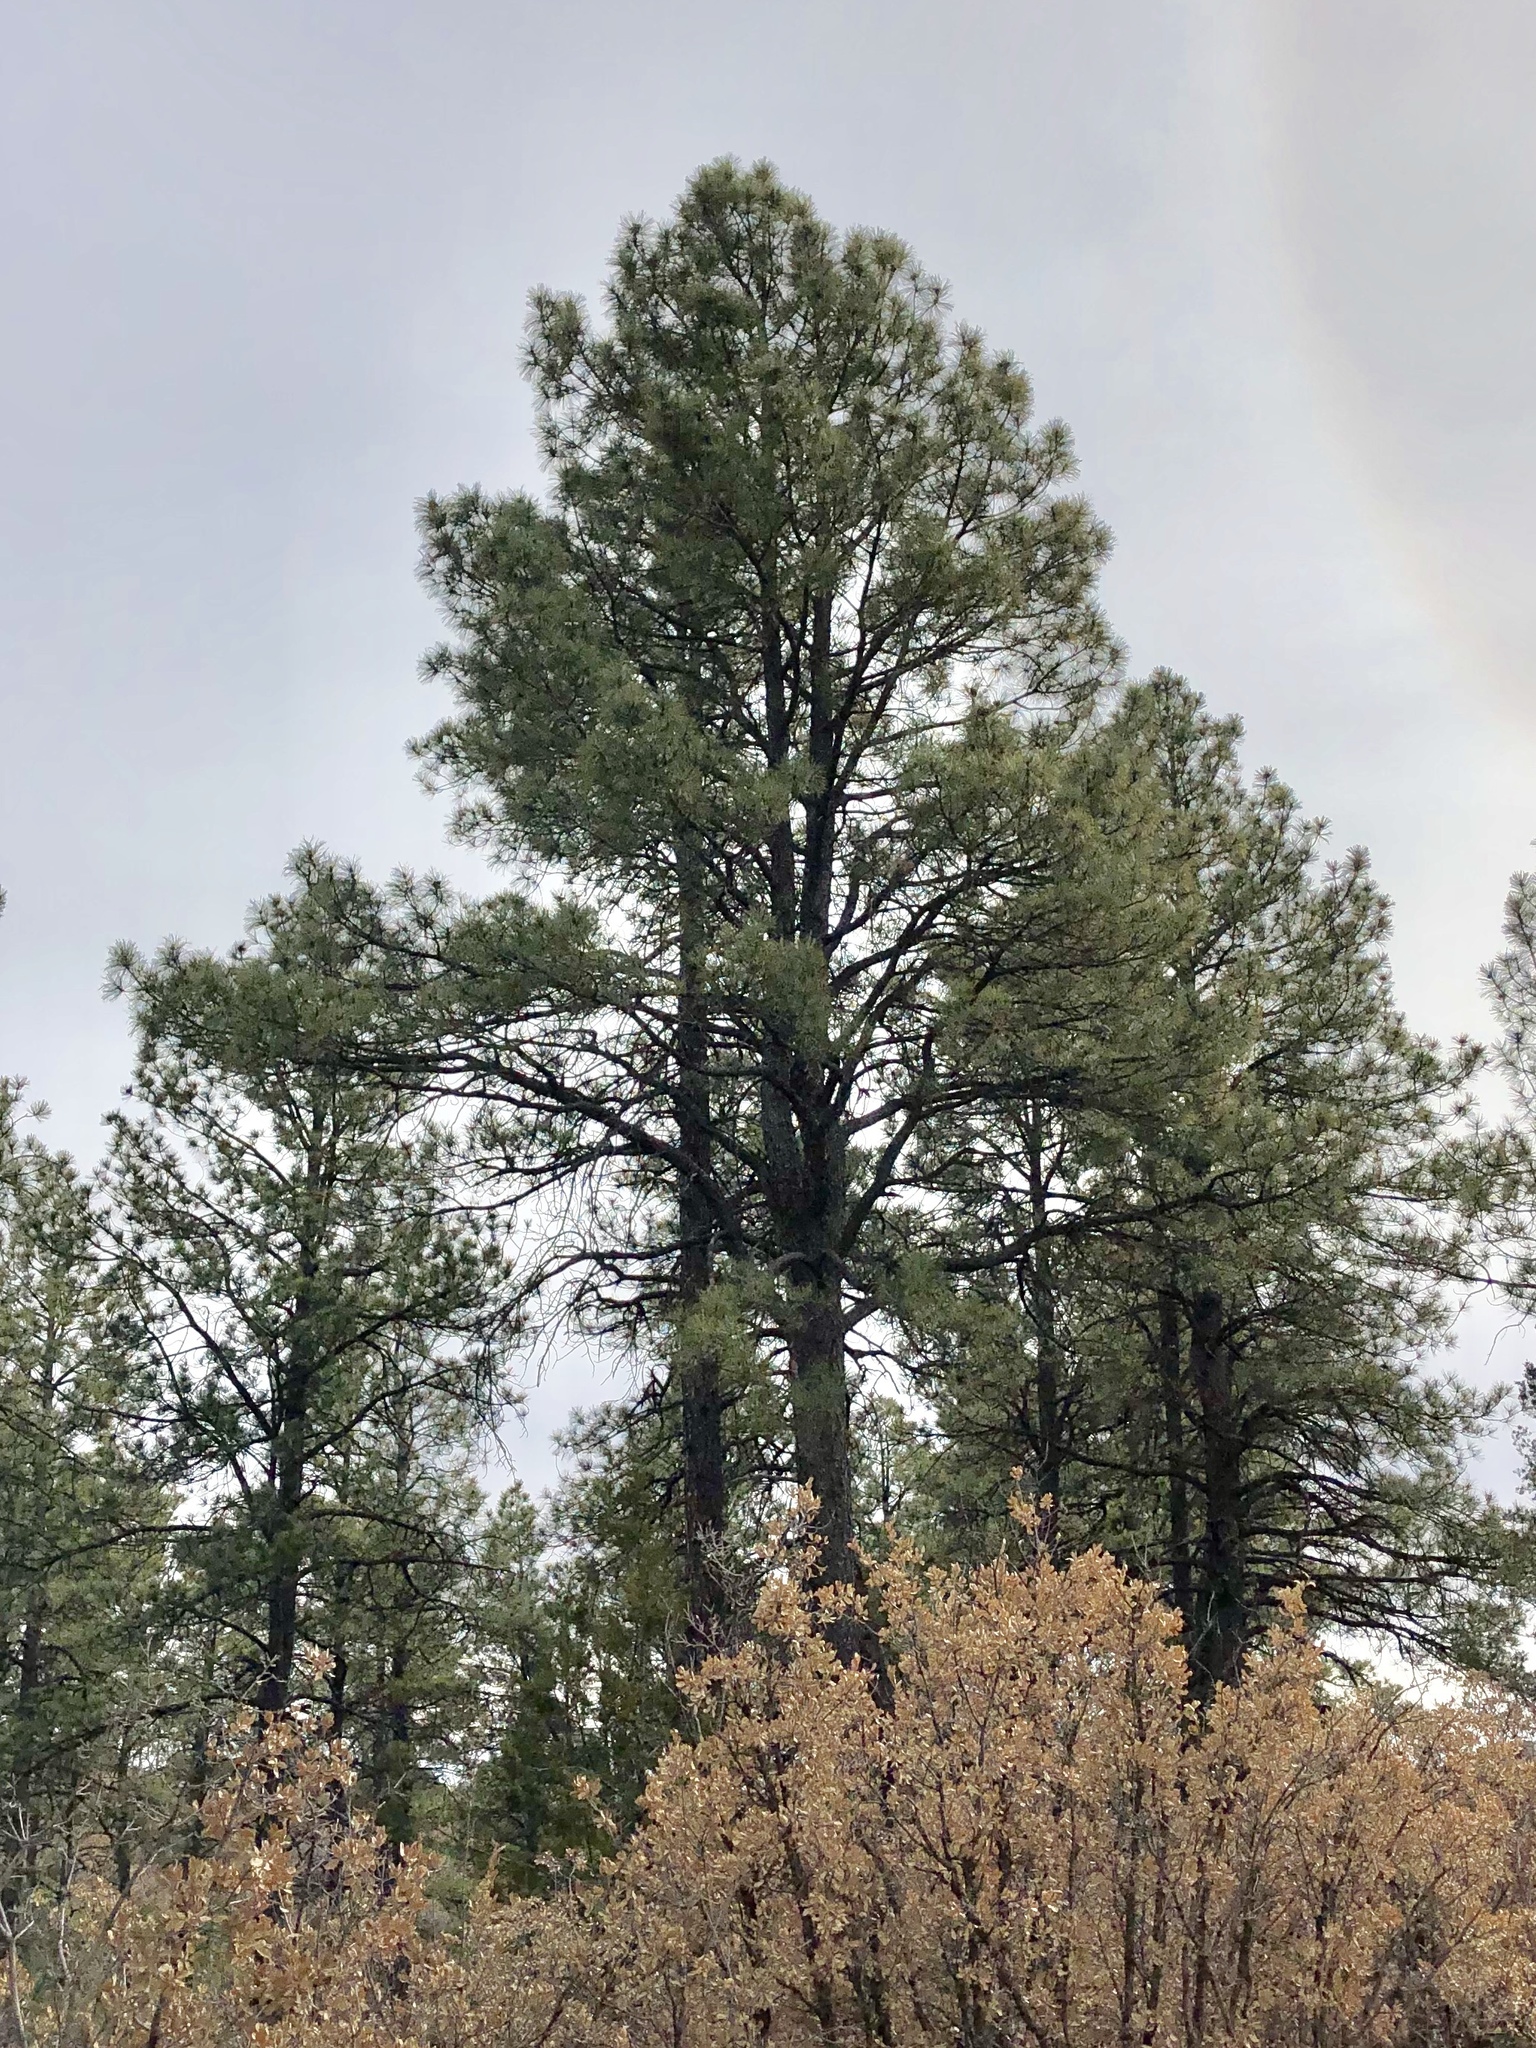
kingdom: Plantae
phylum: Tracheophyta
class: Pinopsida
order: Pinales
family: Pinaceae
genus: Pinus
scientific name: Pinus ponderosa
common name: Western yellow-pine
